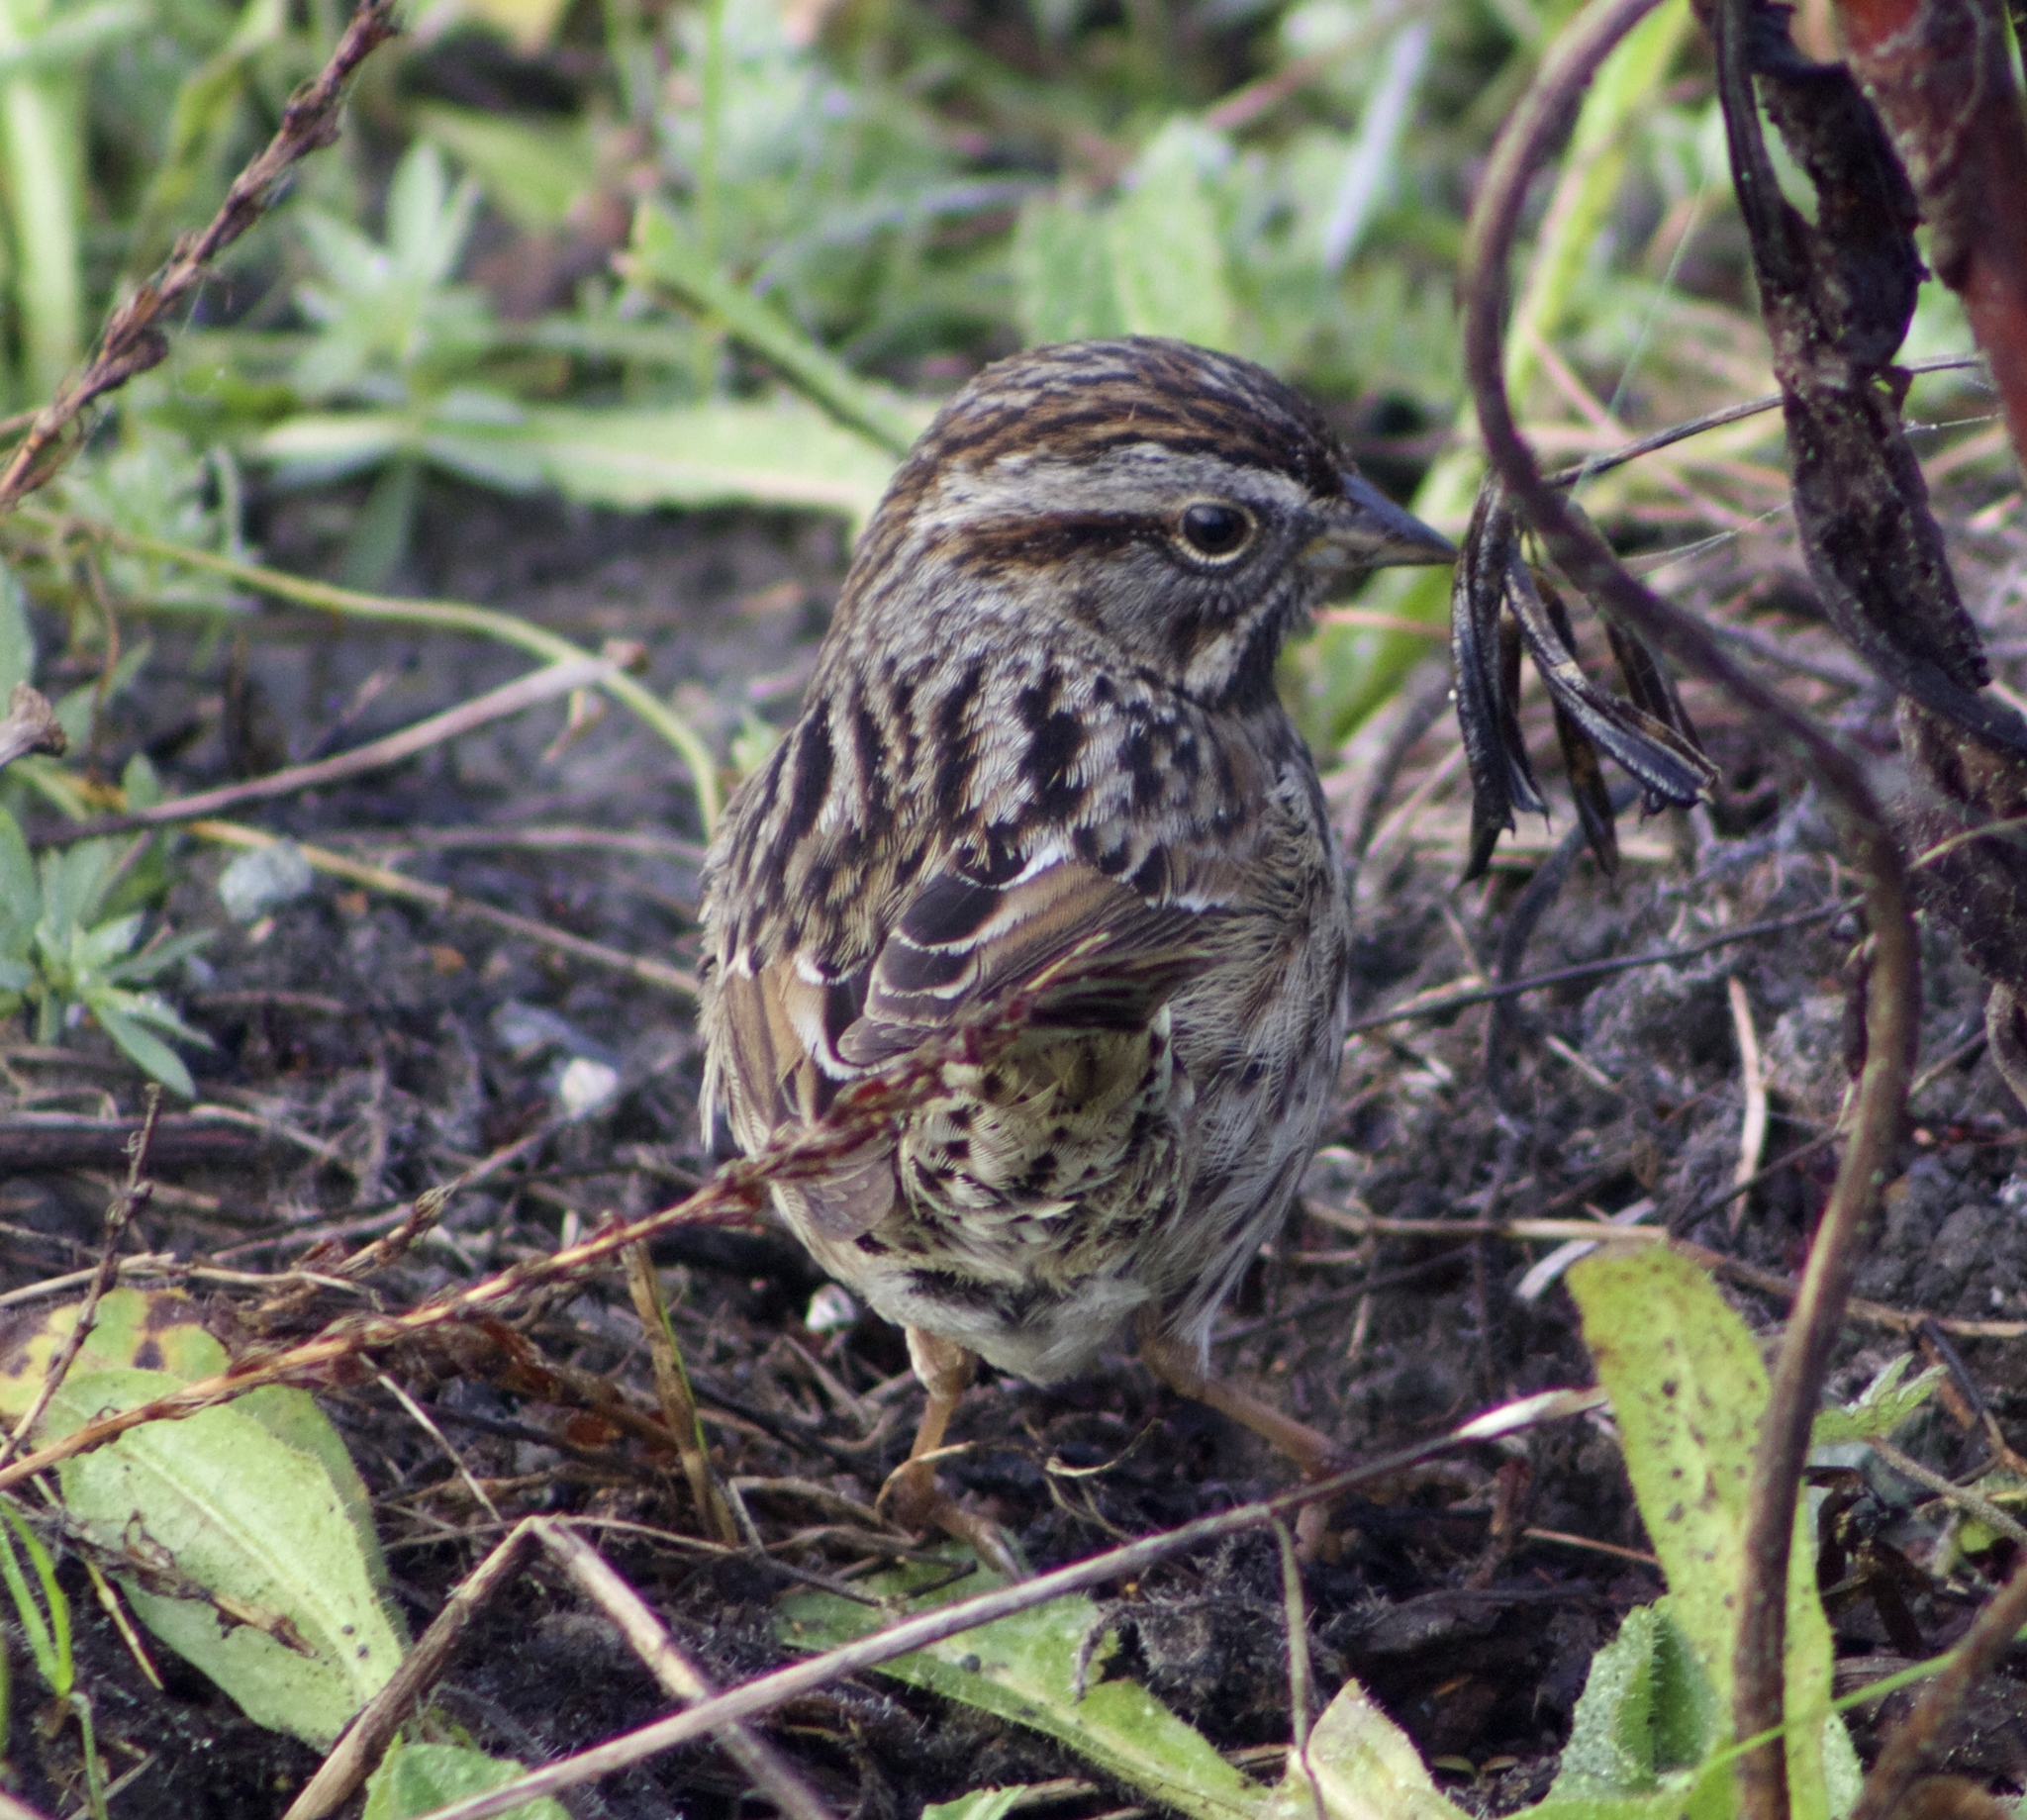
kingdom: Animalia
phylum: Chordata
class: Aves
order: Passeriformes
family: Passerellidae
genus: Melospiza
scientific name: Melospiza melodia
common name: Song sparrow
